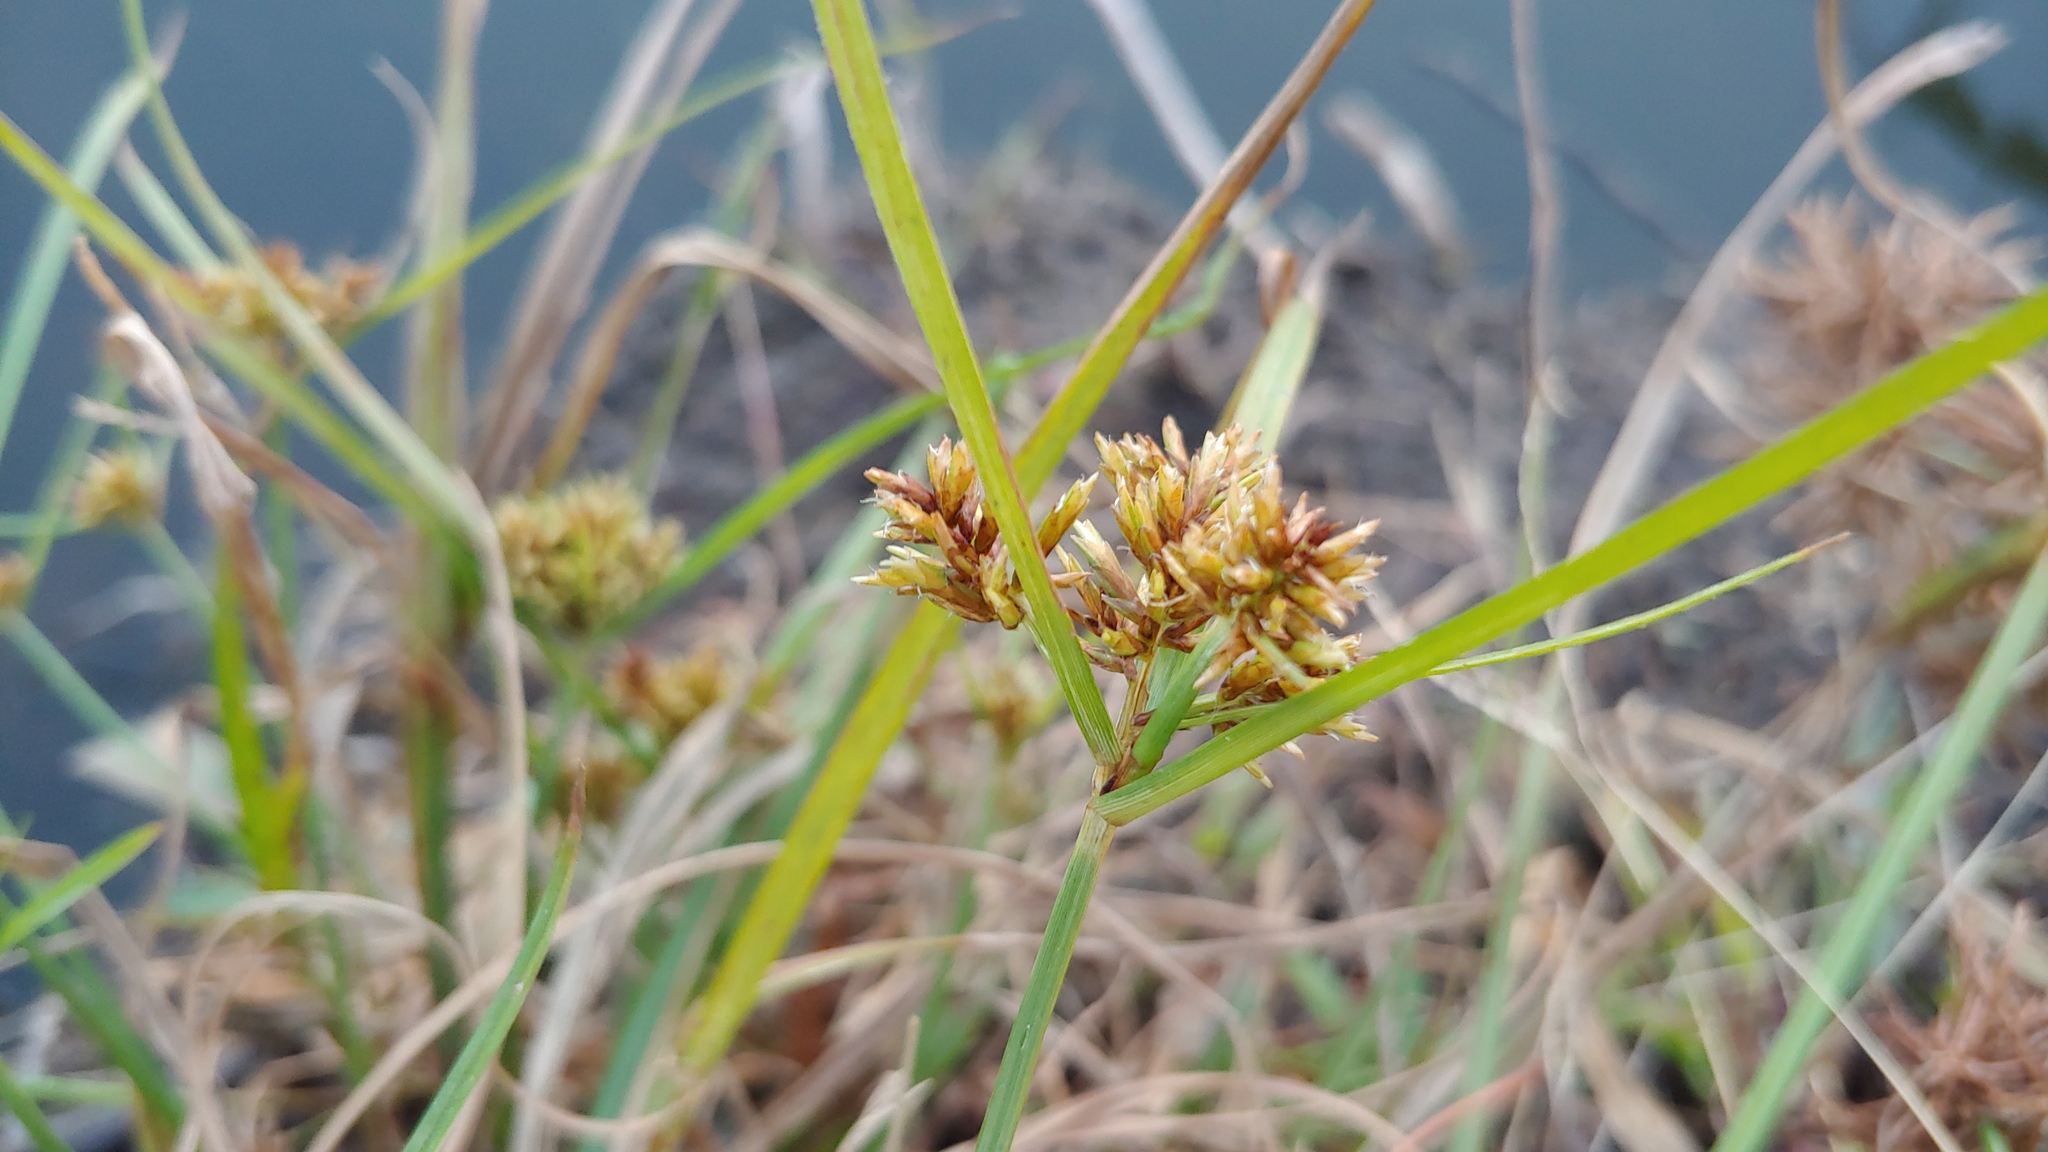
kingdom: Plantae
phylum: Tracheophyta
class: Liliopsida
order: Poales
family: Cyperaceae
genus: Cyperus
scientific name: Cyperus strigosus
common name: False nutsedge
